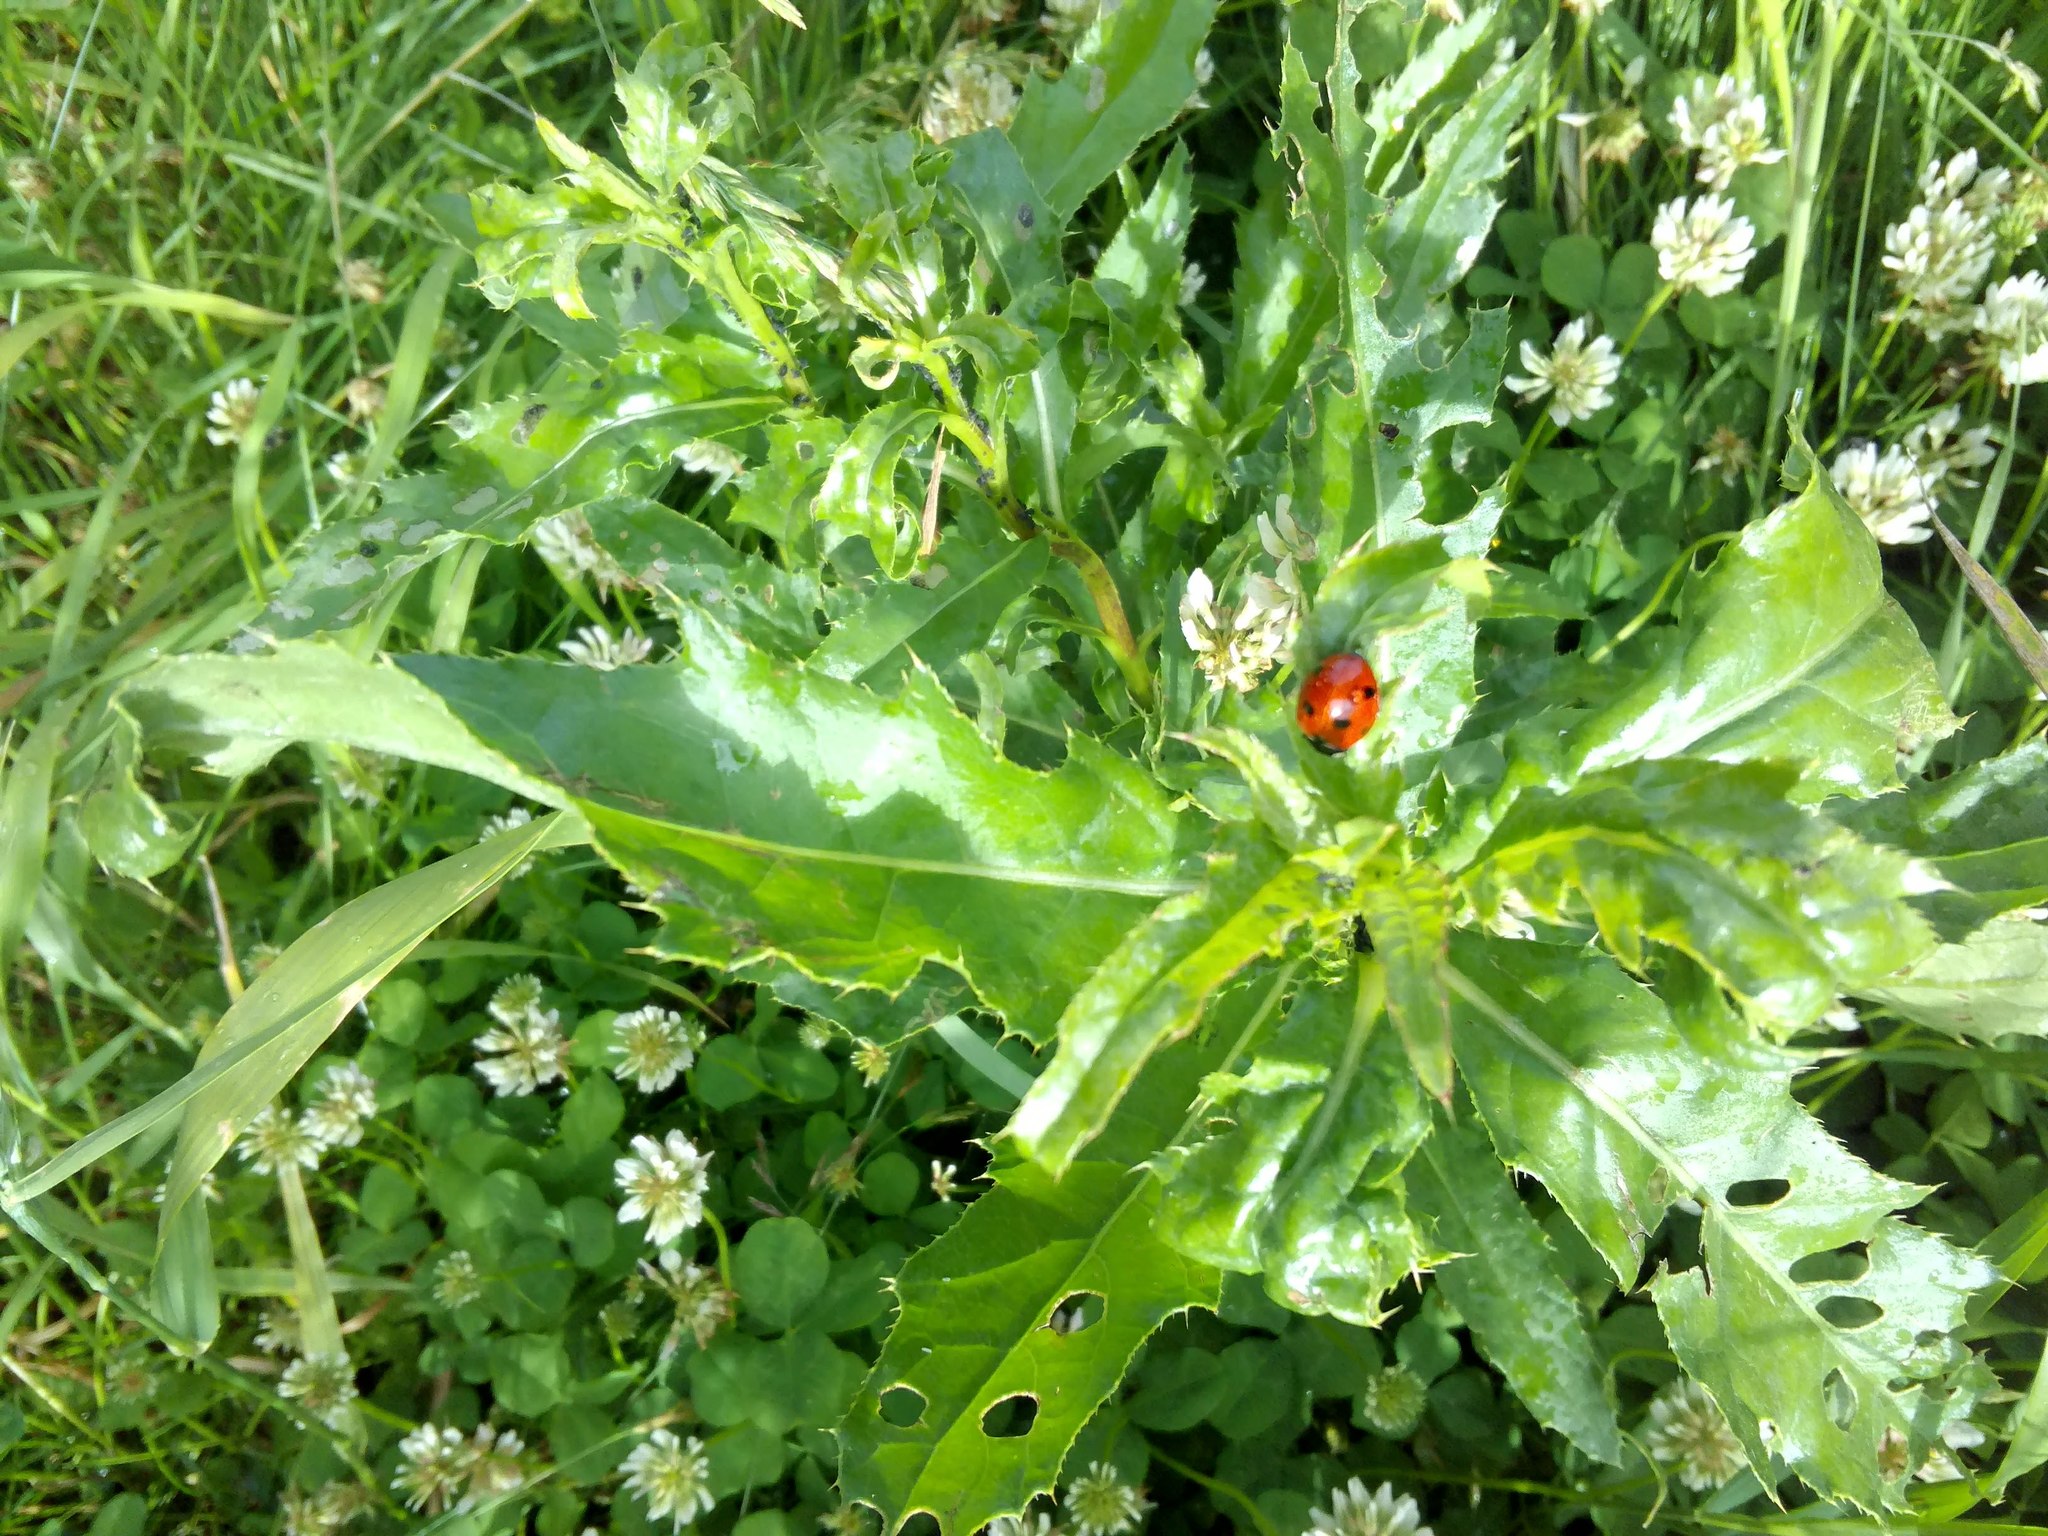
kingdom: Animalia
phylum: Arthropoda
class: Insecta
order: Coleoptera
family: Coccinellidae
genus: Coccinella
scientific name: Coccinella septempunctata
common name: Sevenspotted lady beetle
